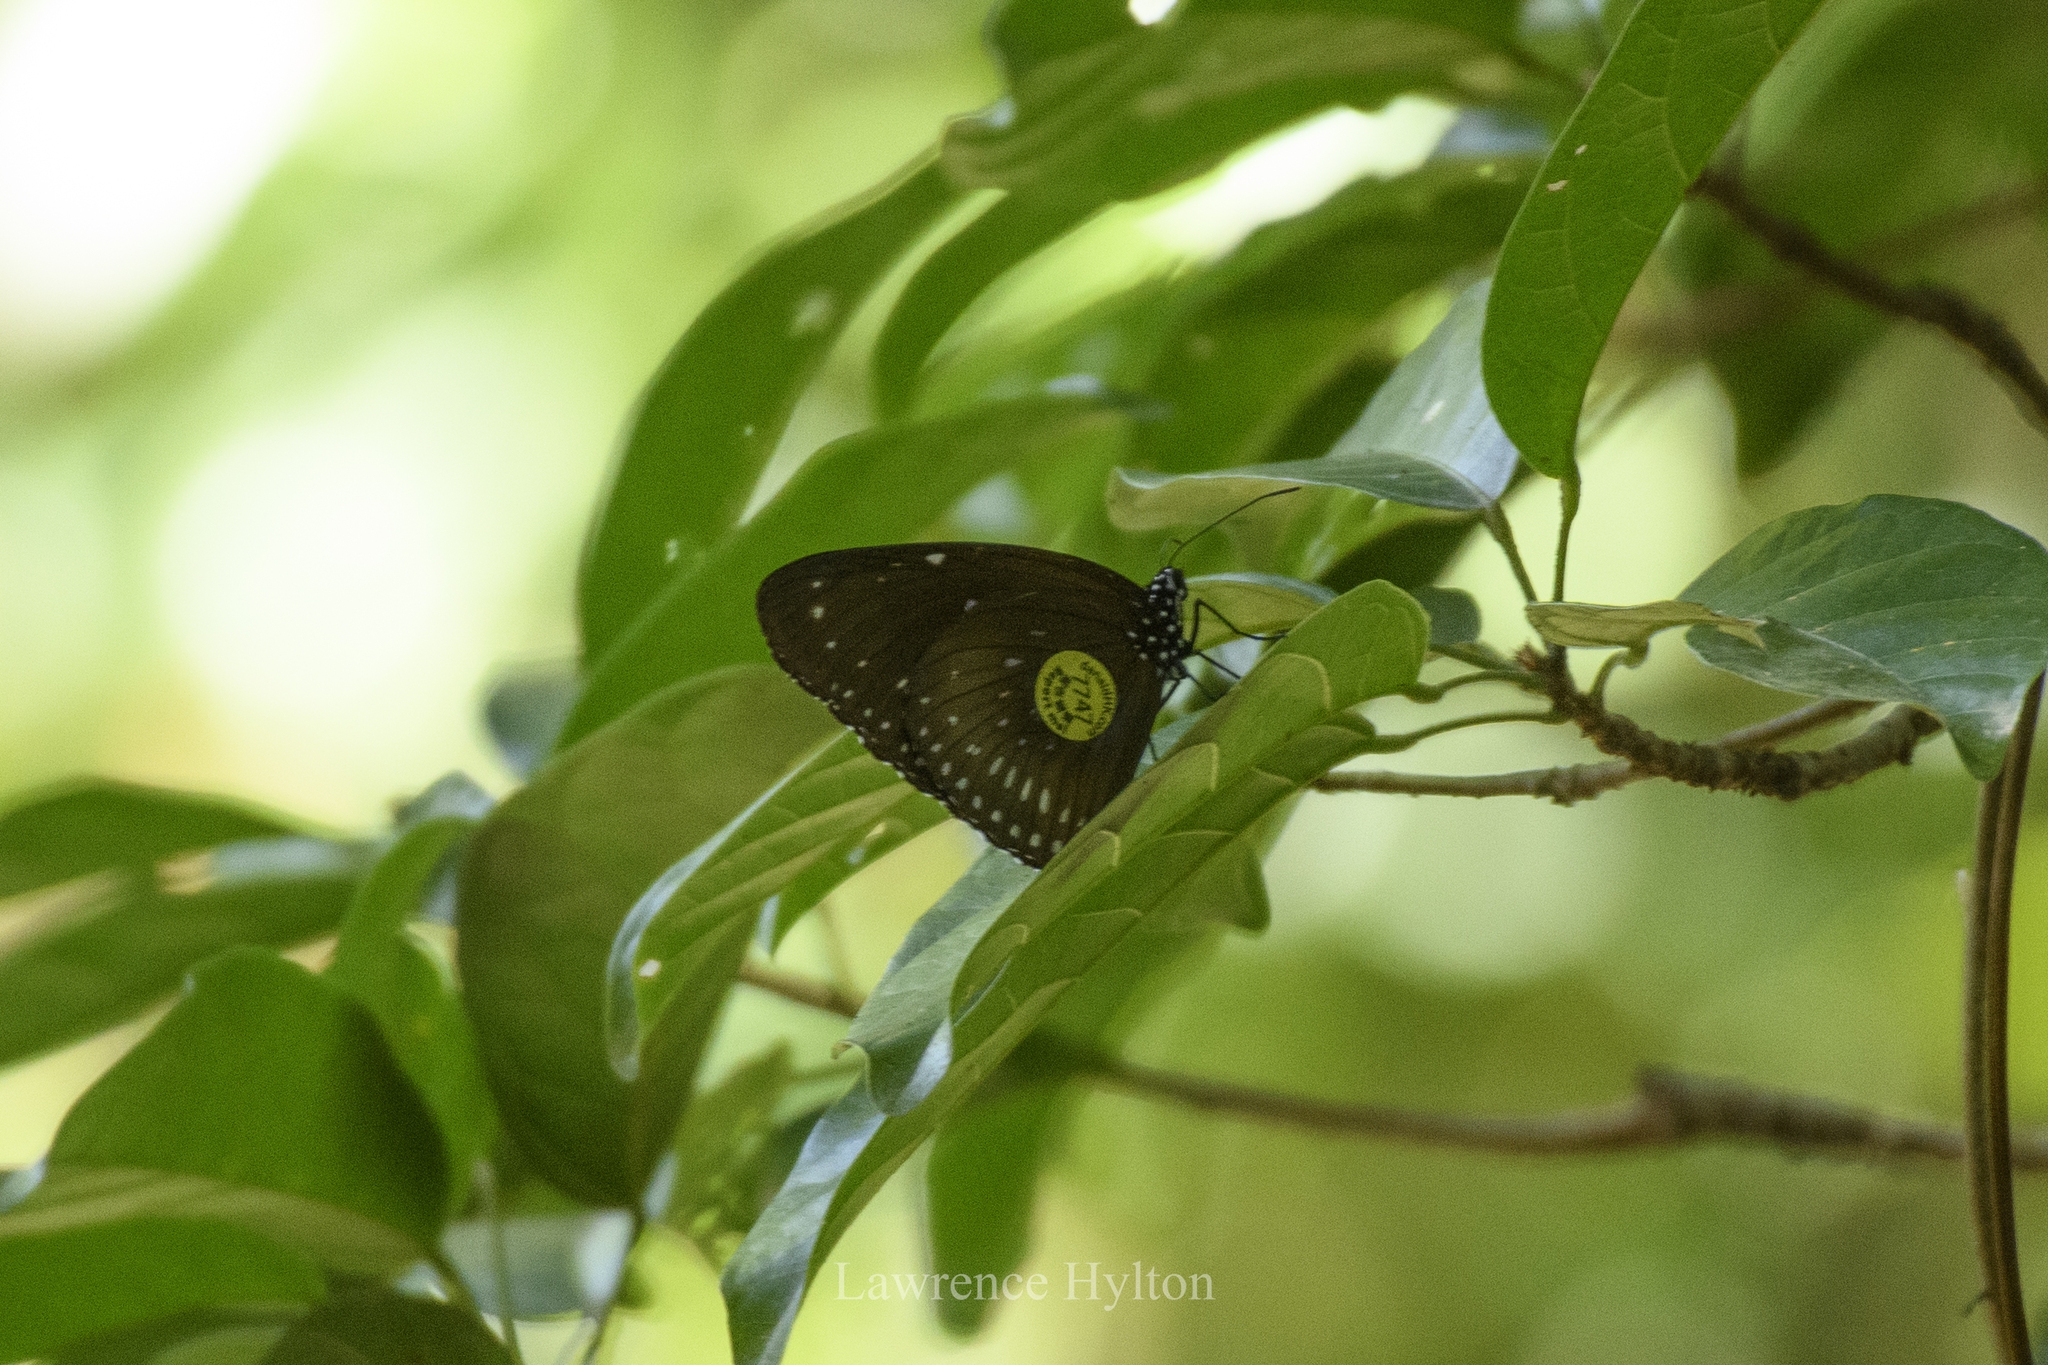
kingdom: Animalia
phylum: Arthropoda
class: Insecta
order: Lepidoptera
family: Nymphalidae
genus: Euploea
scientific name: Euploea midamus
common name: Blue-spotted crow butterfly
